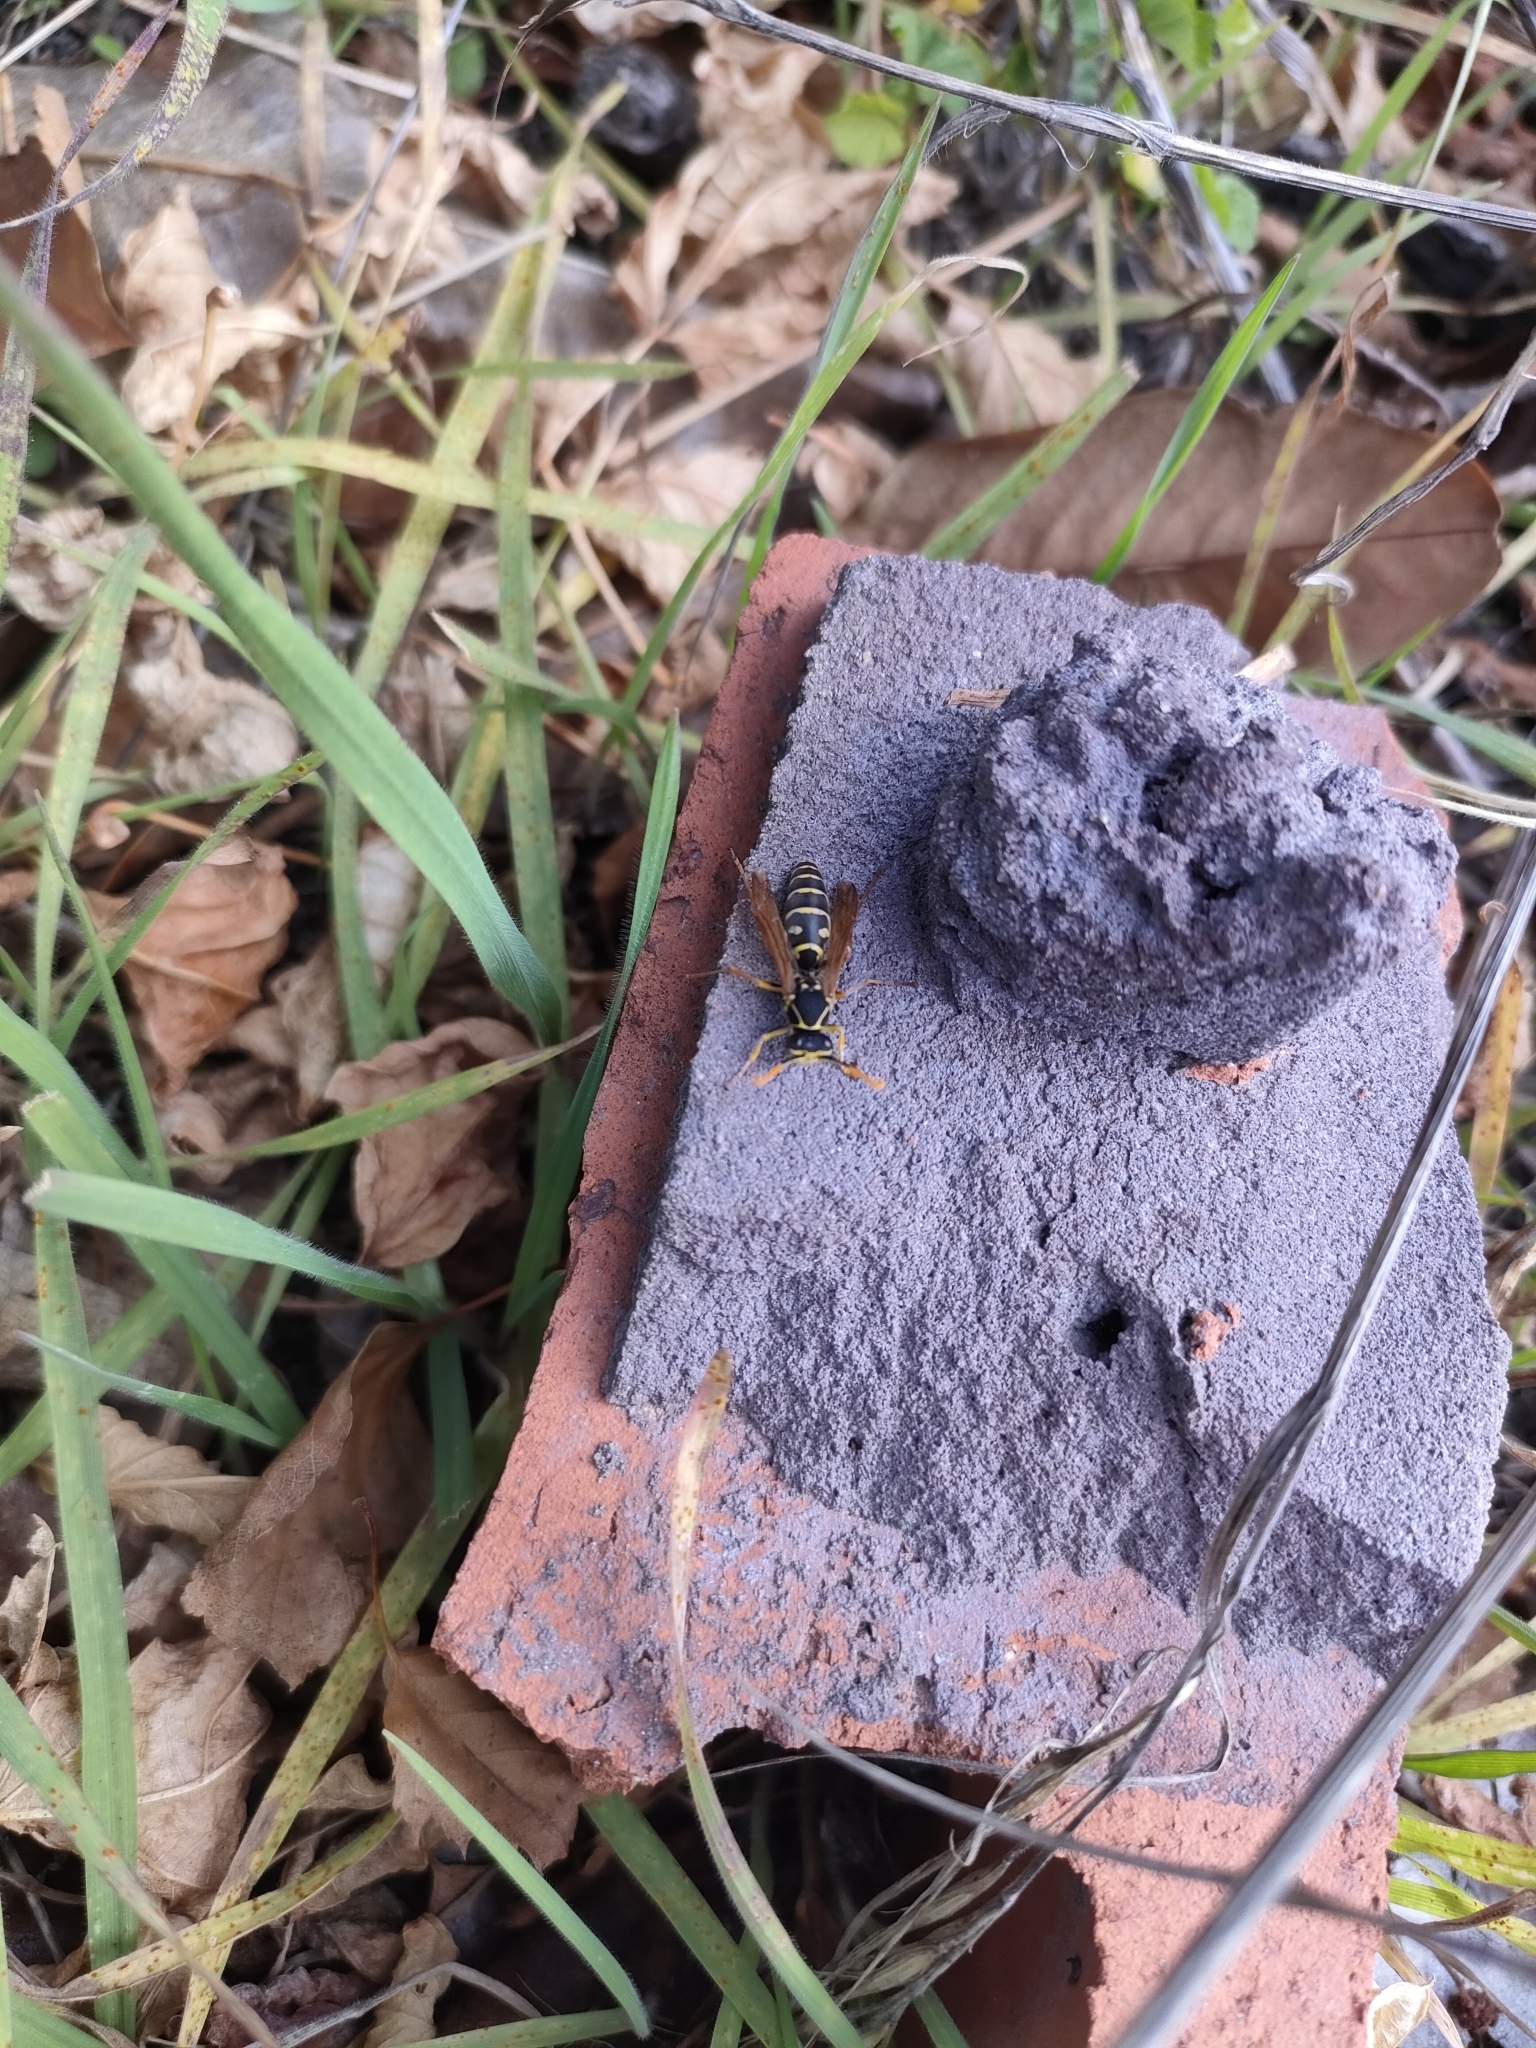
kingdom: Animalia
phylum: Arthropoda
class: Insecta
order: Hymenoptera
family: Eumenidae
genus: Polistes
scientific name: Polistes chinensis
